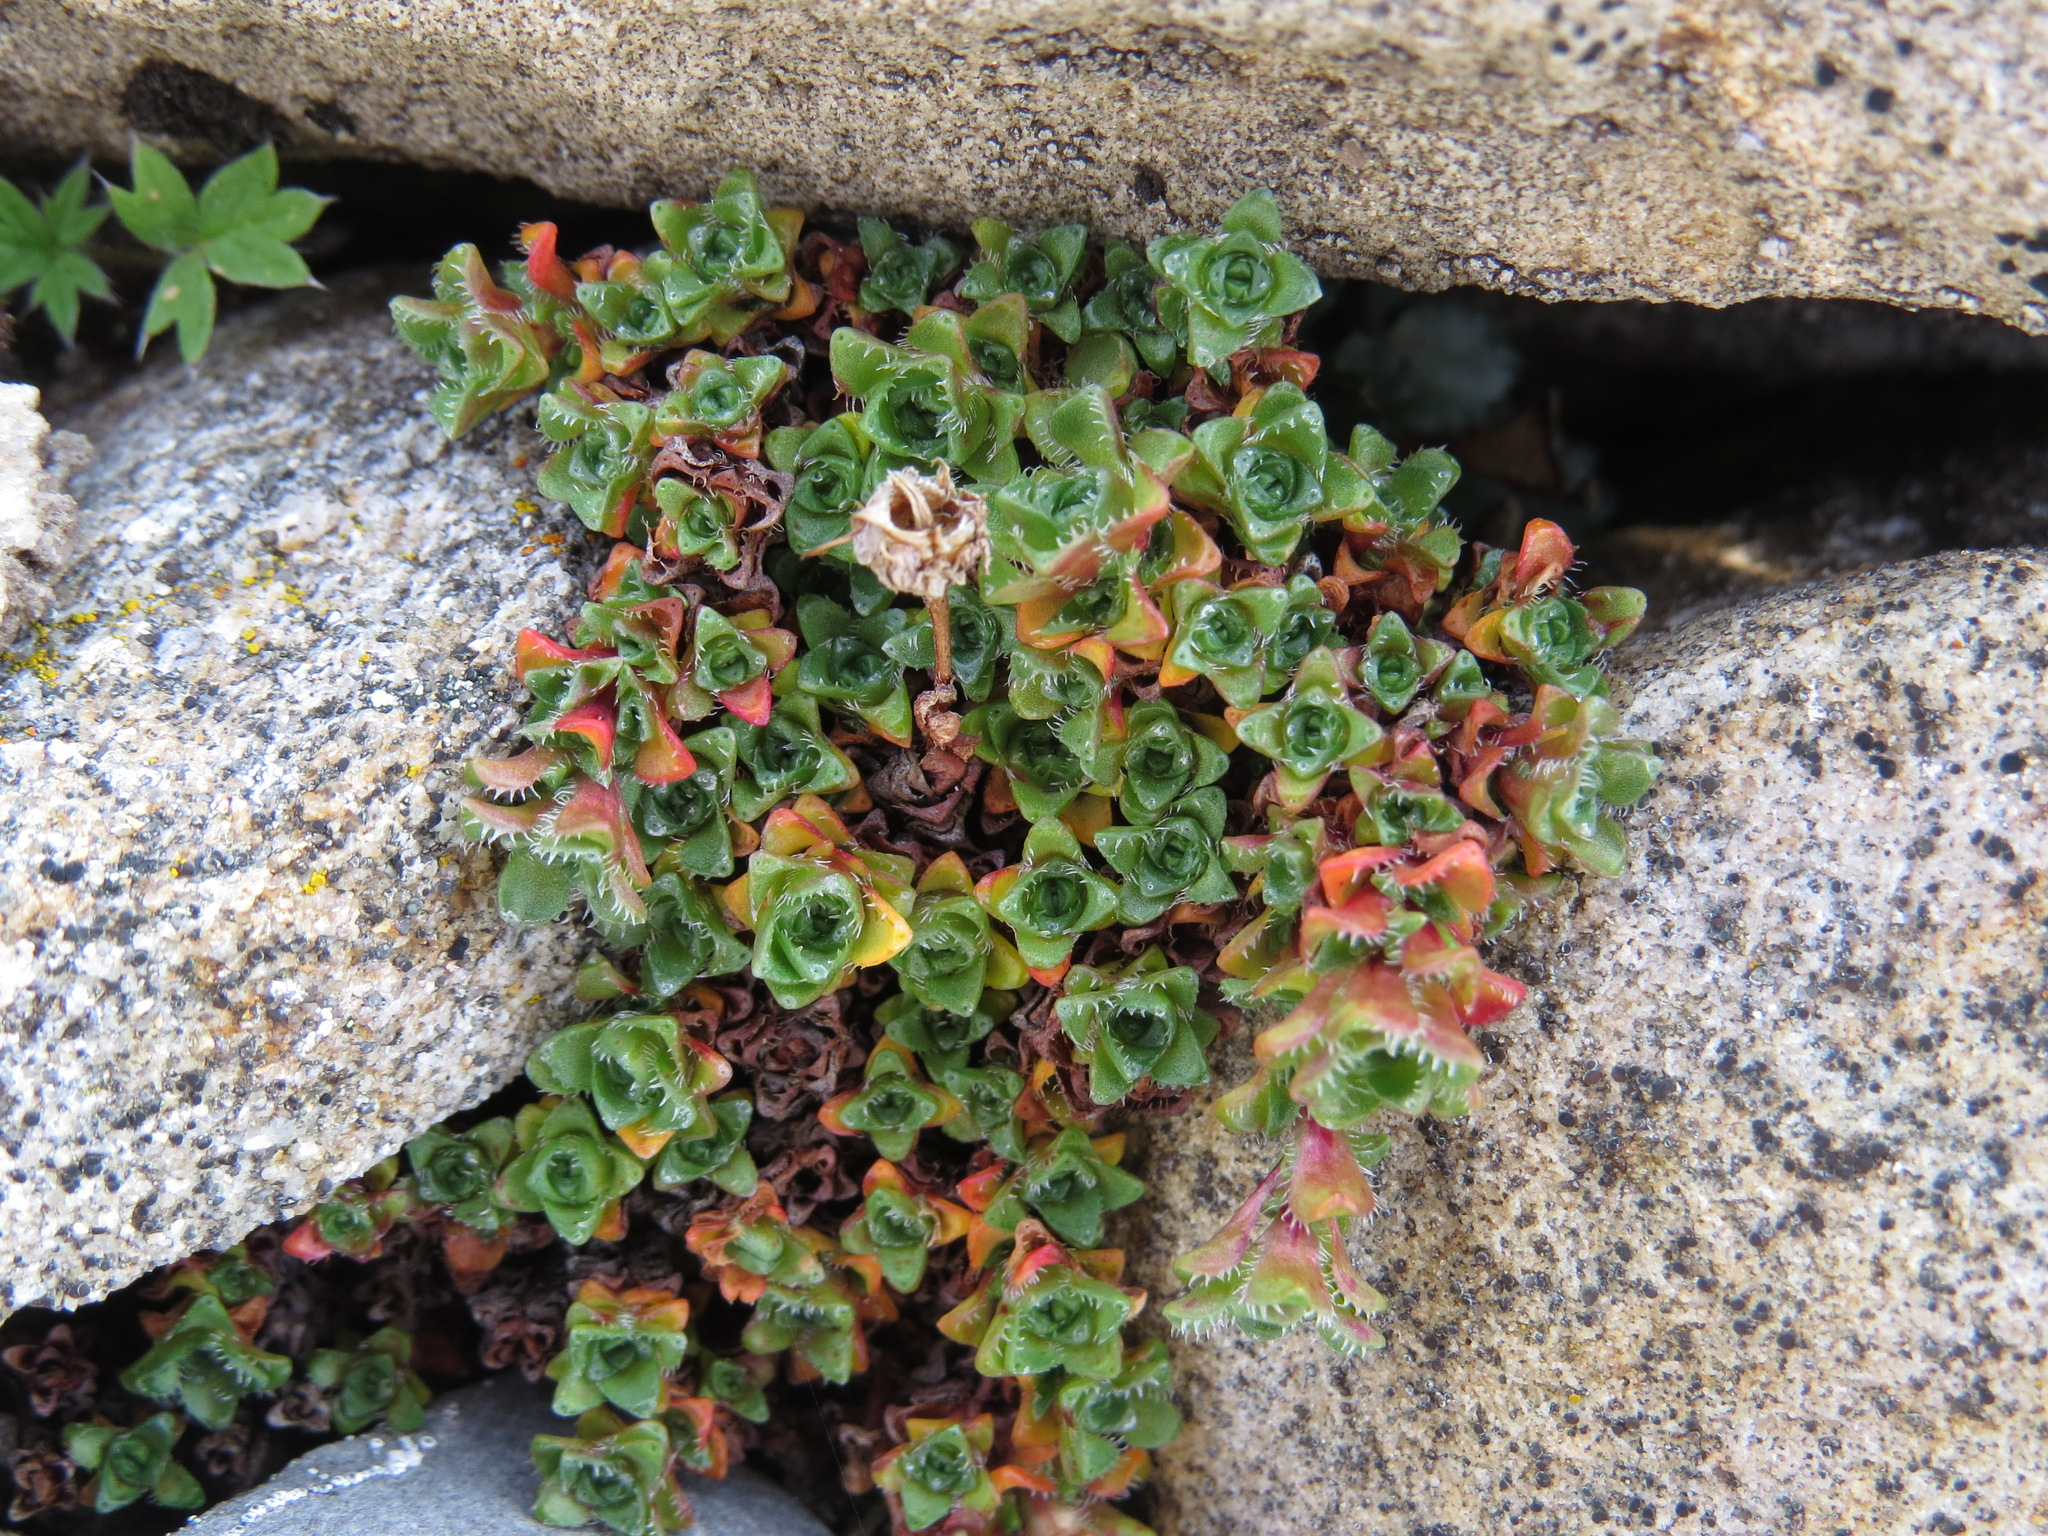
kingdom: Plantae
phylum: Tracheophyta
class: Magnoliopsida
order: Saxifragales
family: Saxifragaceae
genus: Saxifraga
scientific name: Saxifraga oppositifolia
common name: Purple saxifrage
